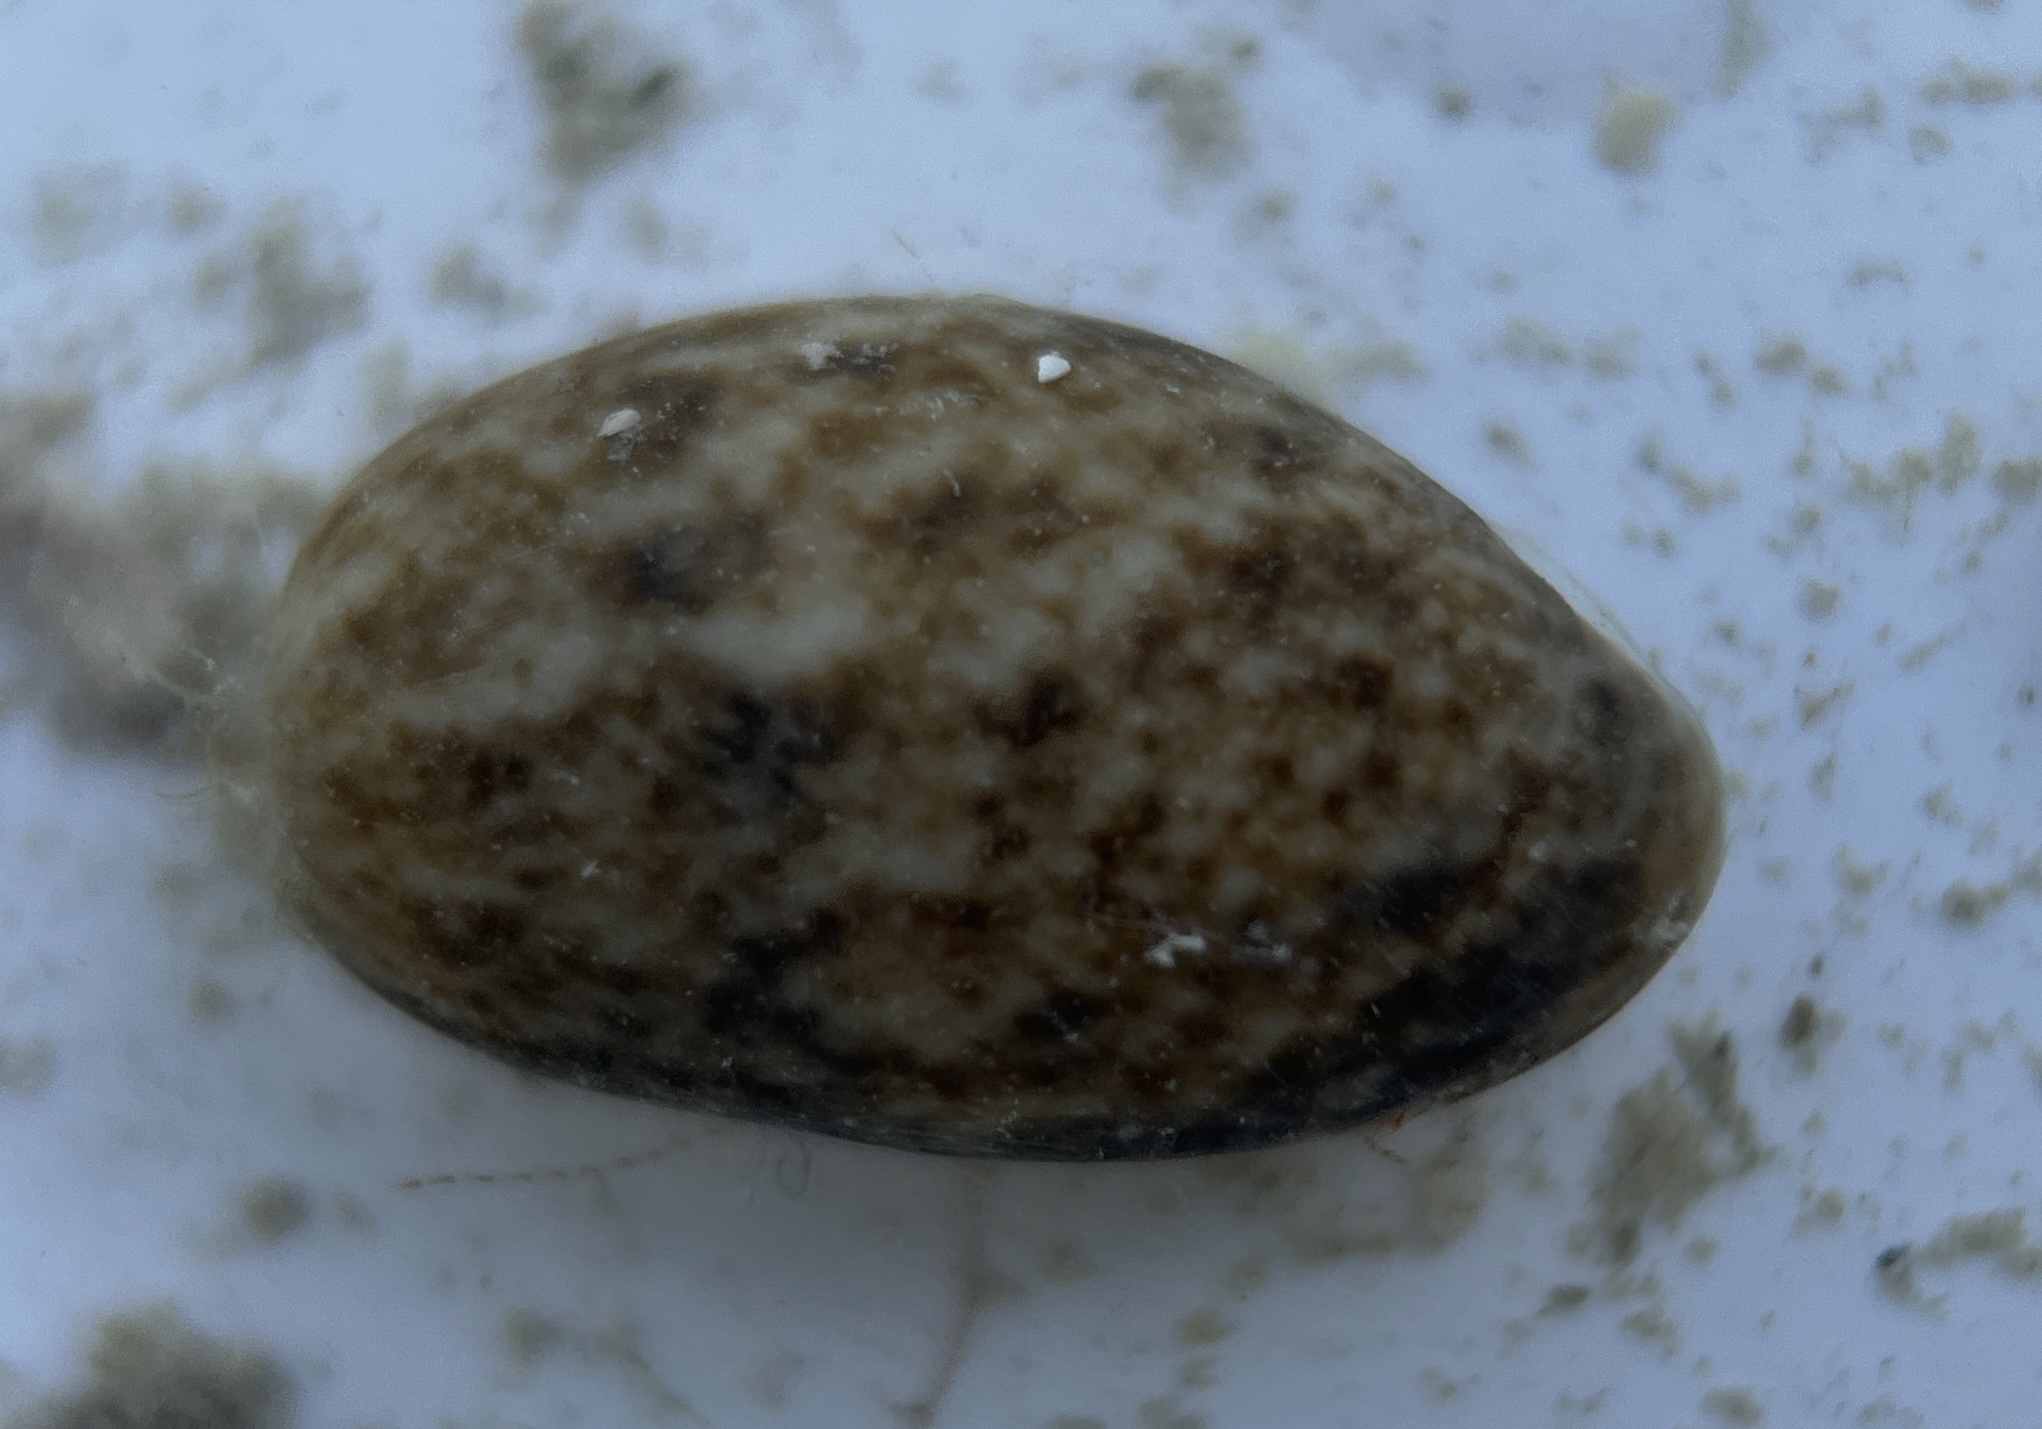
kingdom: Animalia
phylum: Mollusca
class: Gastropoda
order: Cephalaspidea
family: Bullidae
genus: Bulla
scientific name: Bulla occidentalis
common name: Common west-indian bubble
